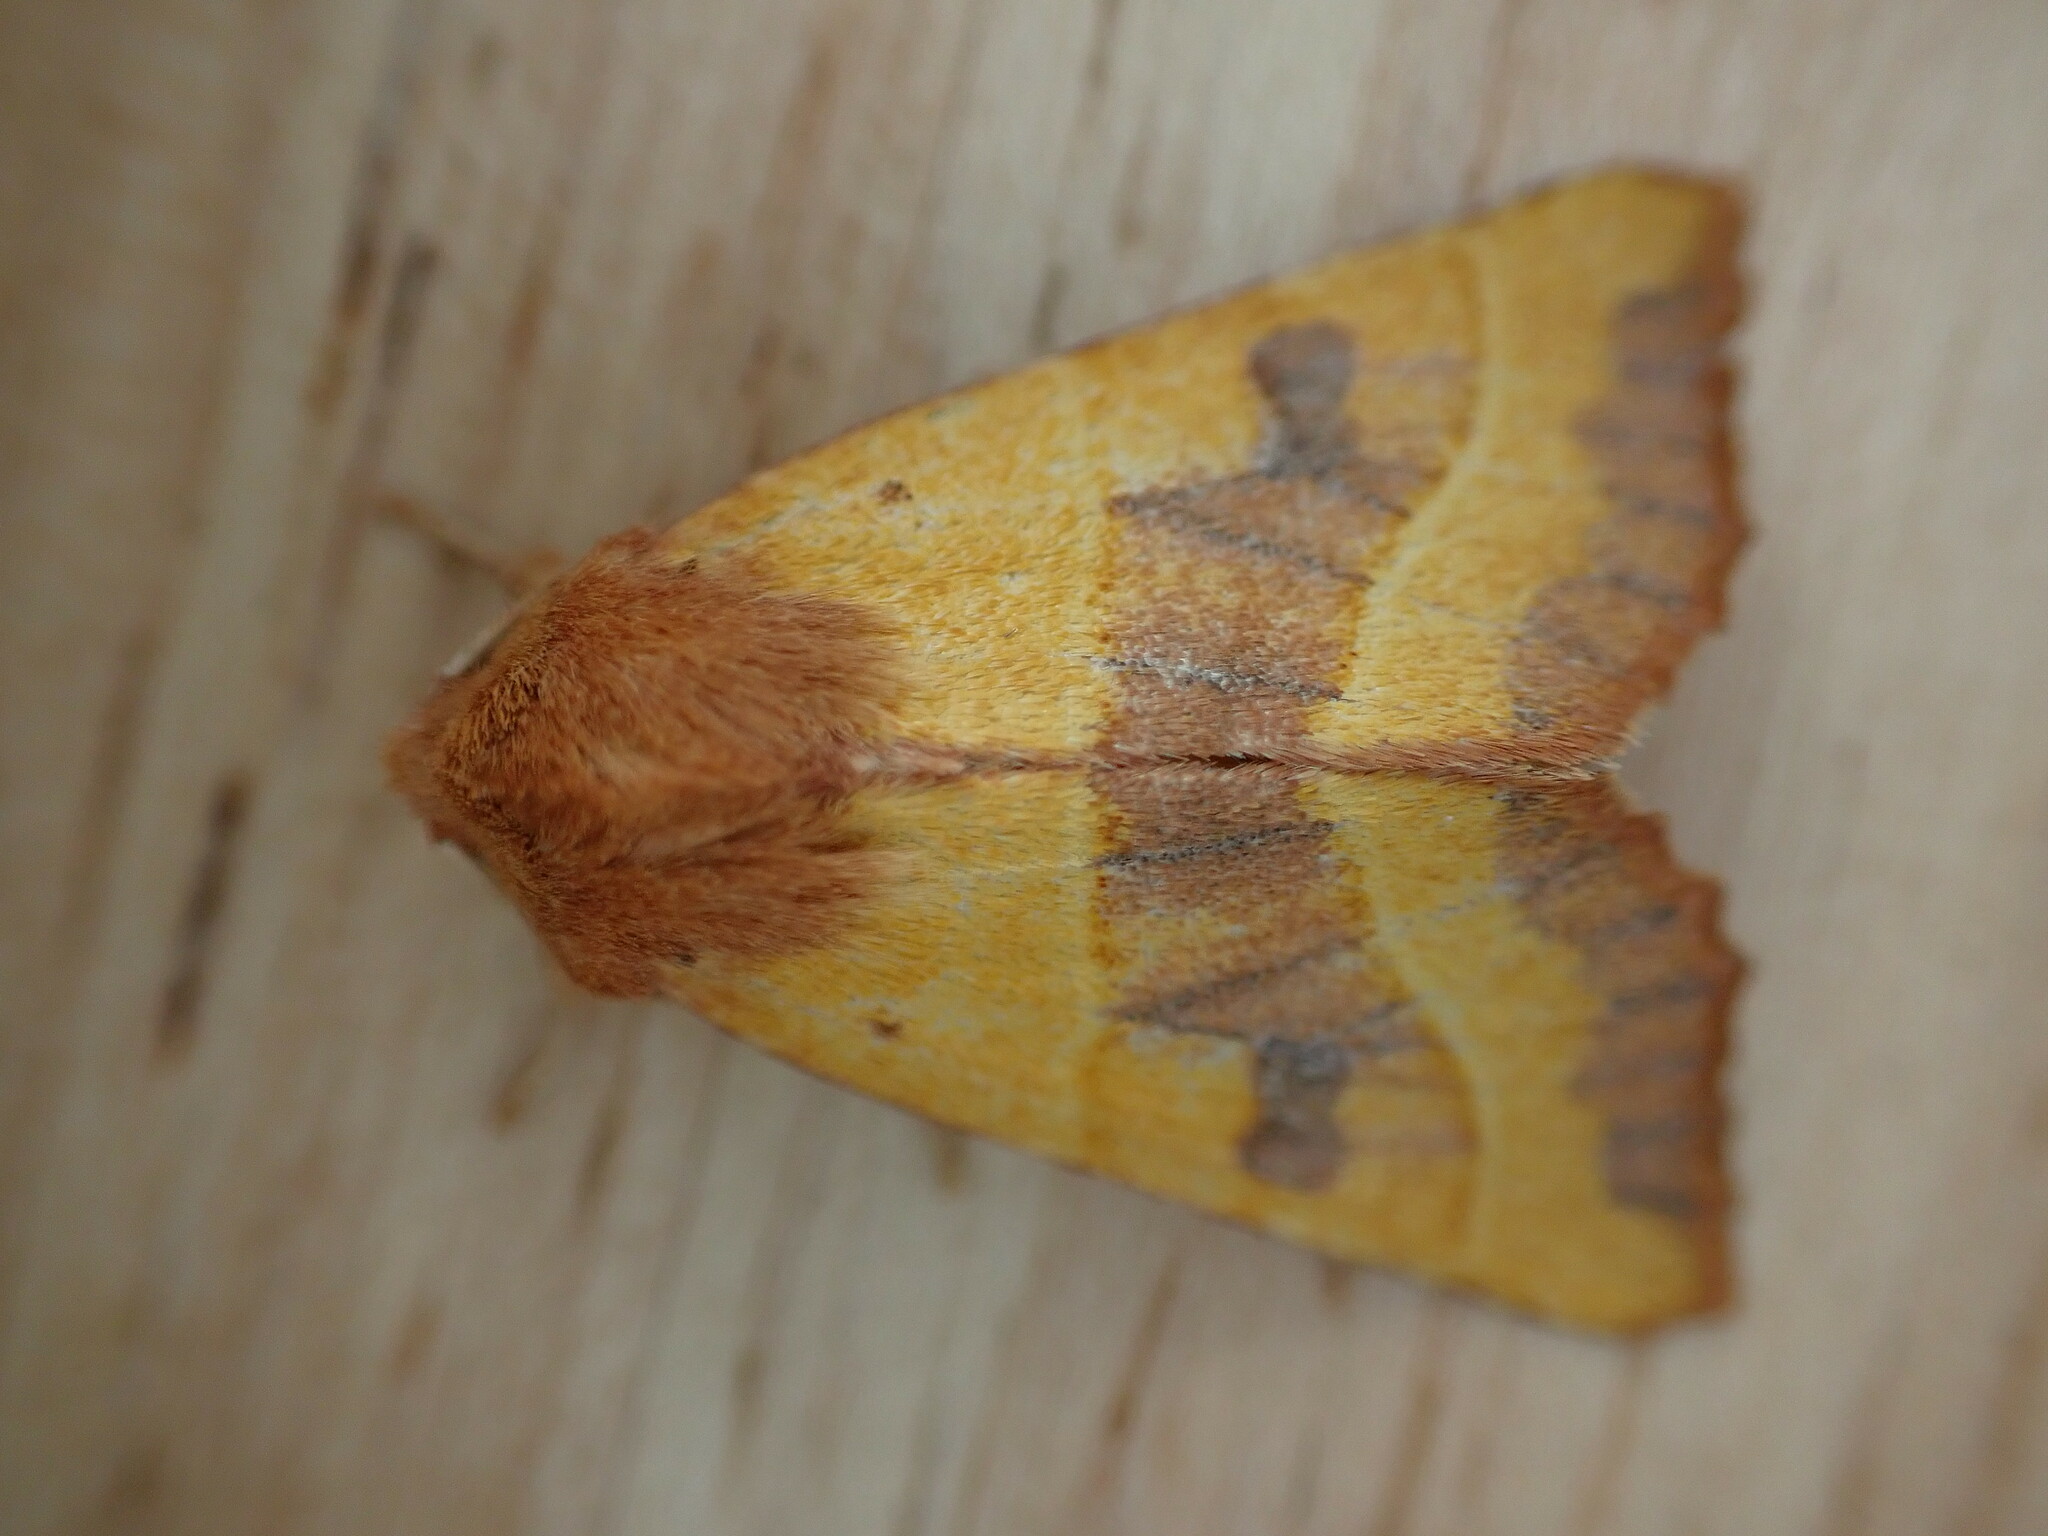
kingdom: Animalia
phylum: Arthropoda
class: Insecta
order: Lepidoptera
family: Noctuidae
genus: Atethmia
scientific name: Atethmia centrago
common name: Centre-barred sallow
